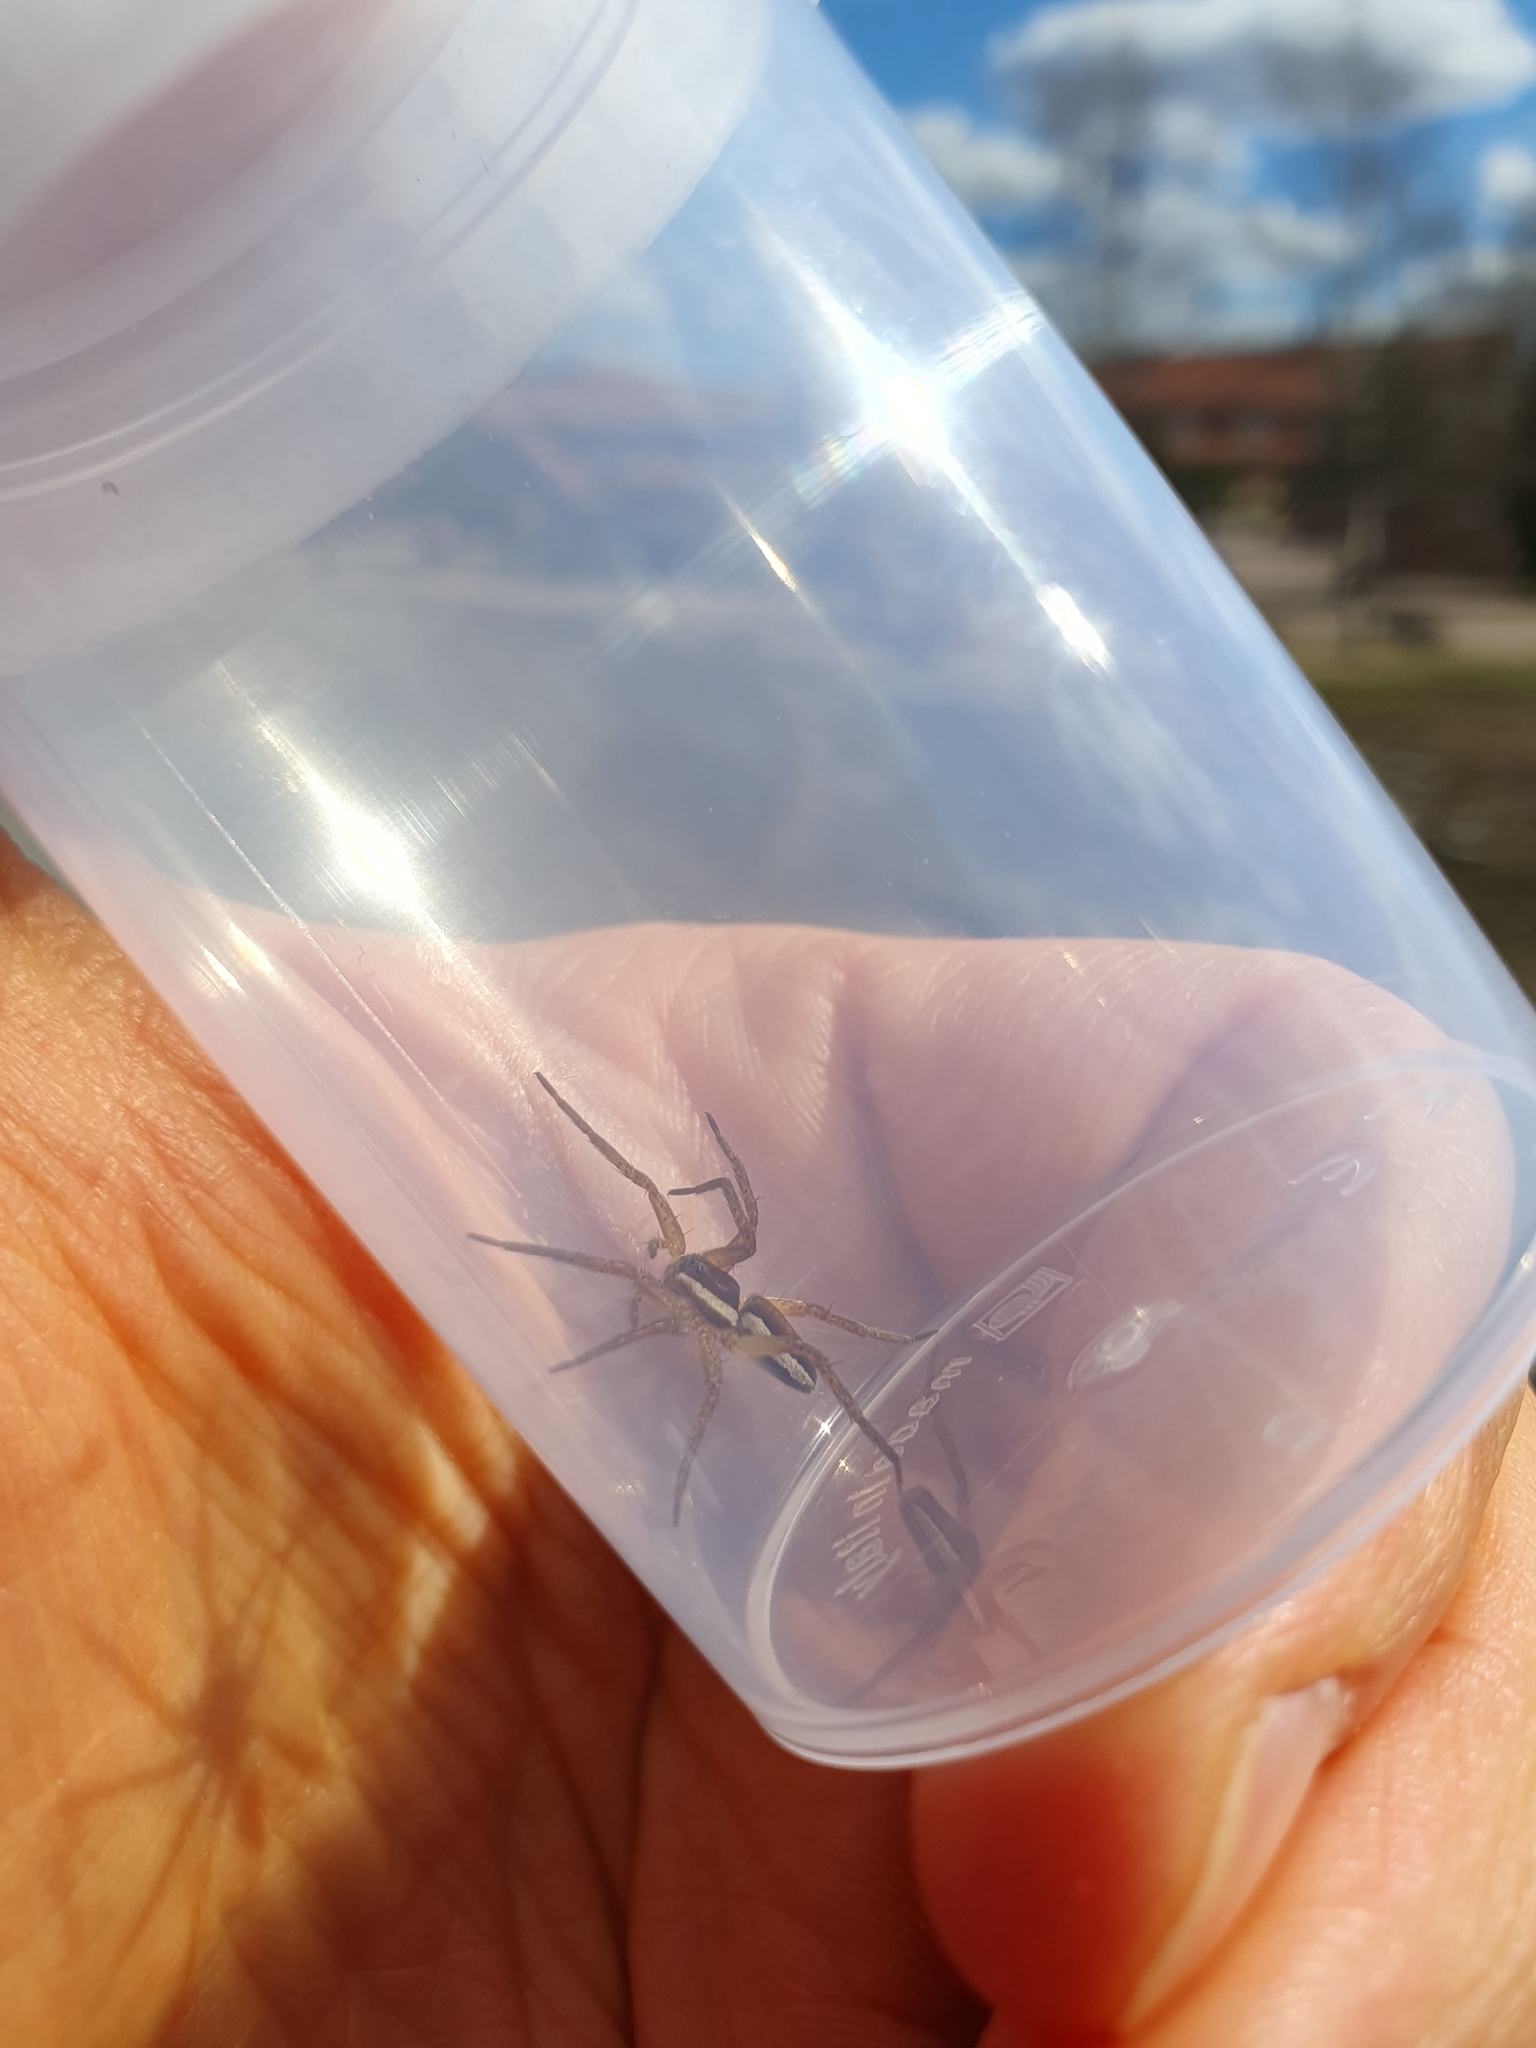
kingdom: Animalia
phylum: Arthropoda
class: Arachnida
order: Araneae
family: Pisauridae
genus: Dolomedes
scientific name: Dolomedes fimbriatus
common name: Raft spider
